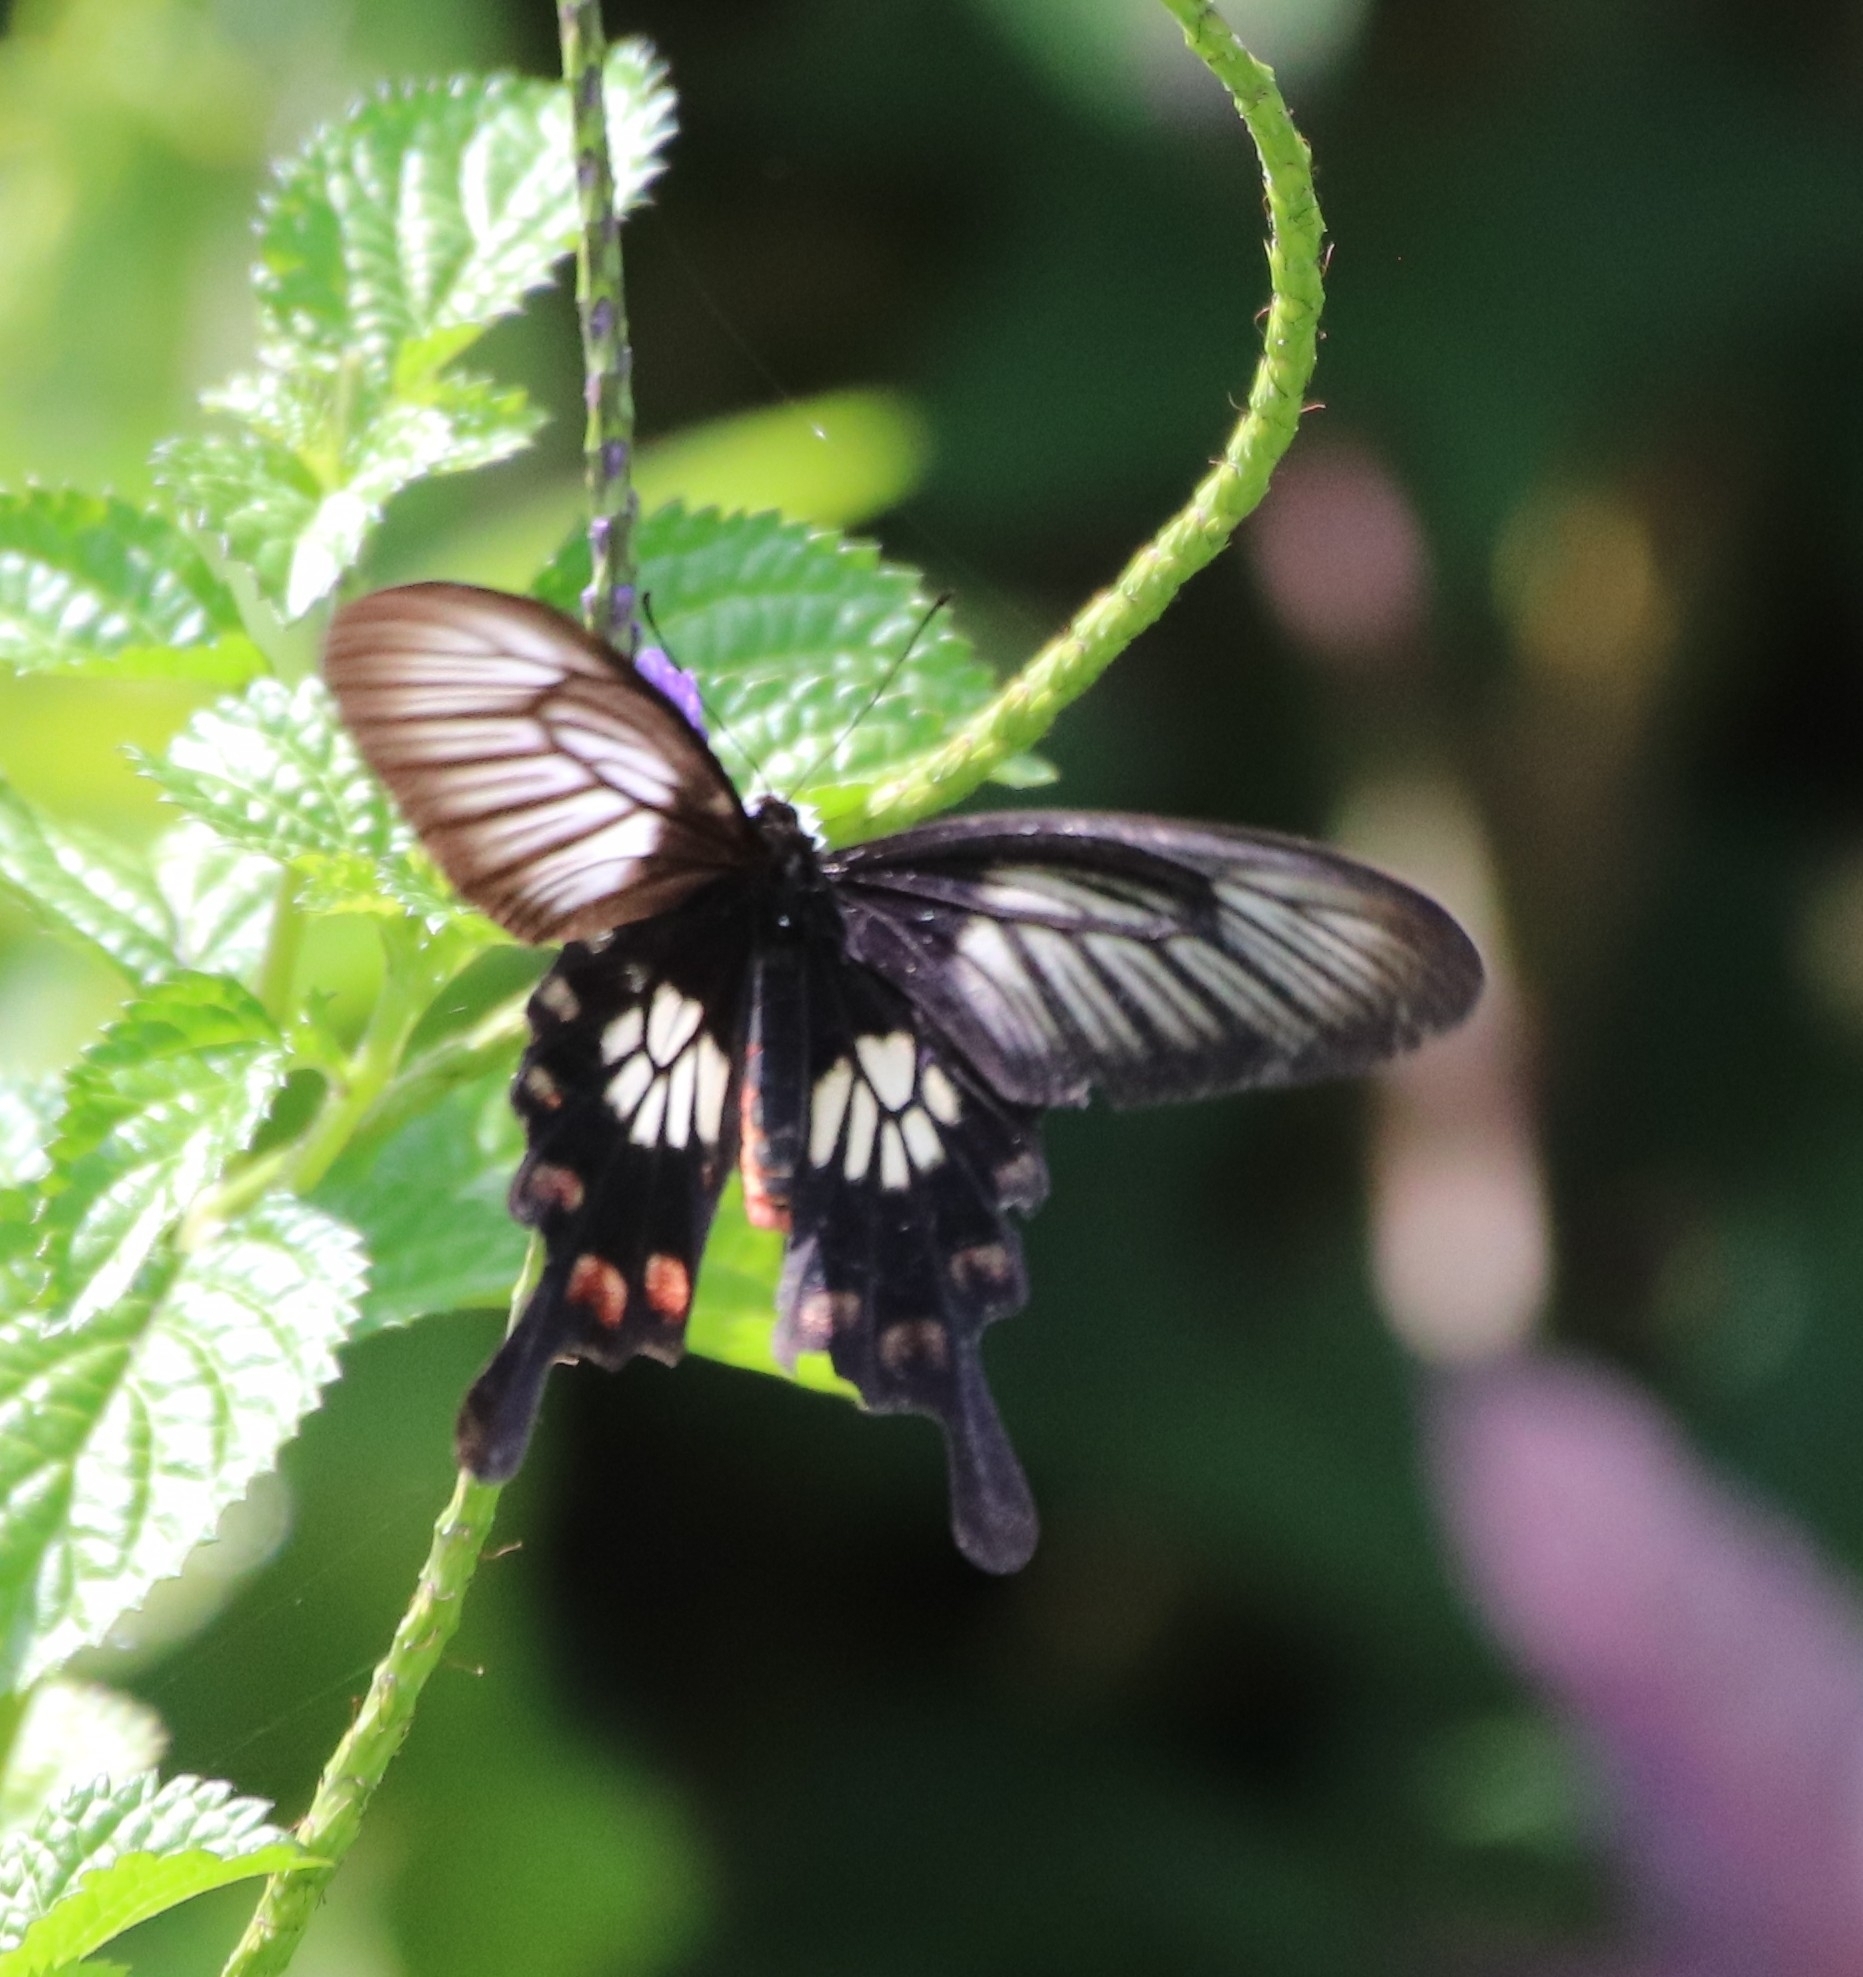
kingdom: Animalia
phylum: Arthropoda
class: Insecta
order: Lepidoptera
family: Papilionidae
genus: Pachliopta
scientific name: Pachliopta polyphontes
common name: Sulawesi rose
